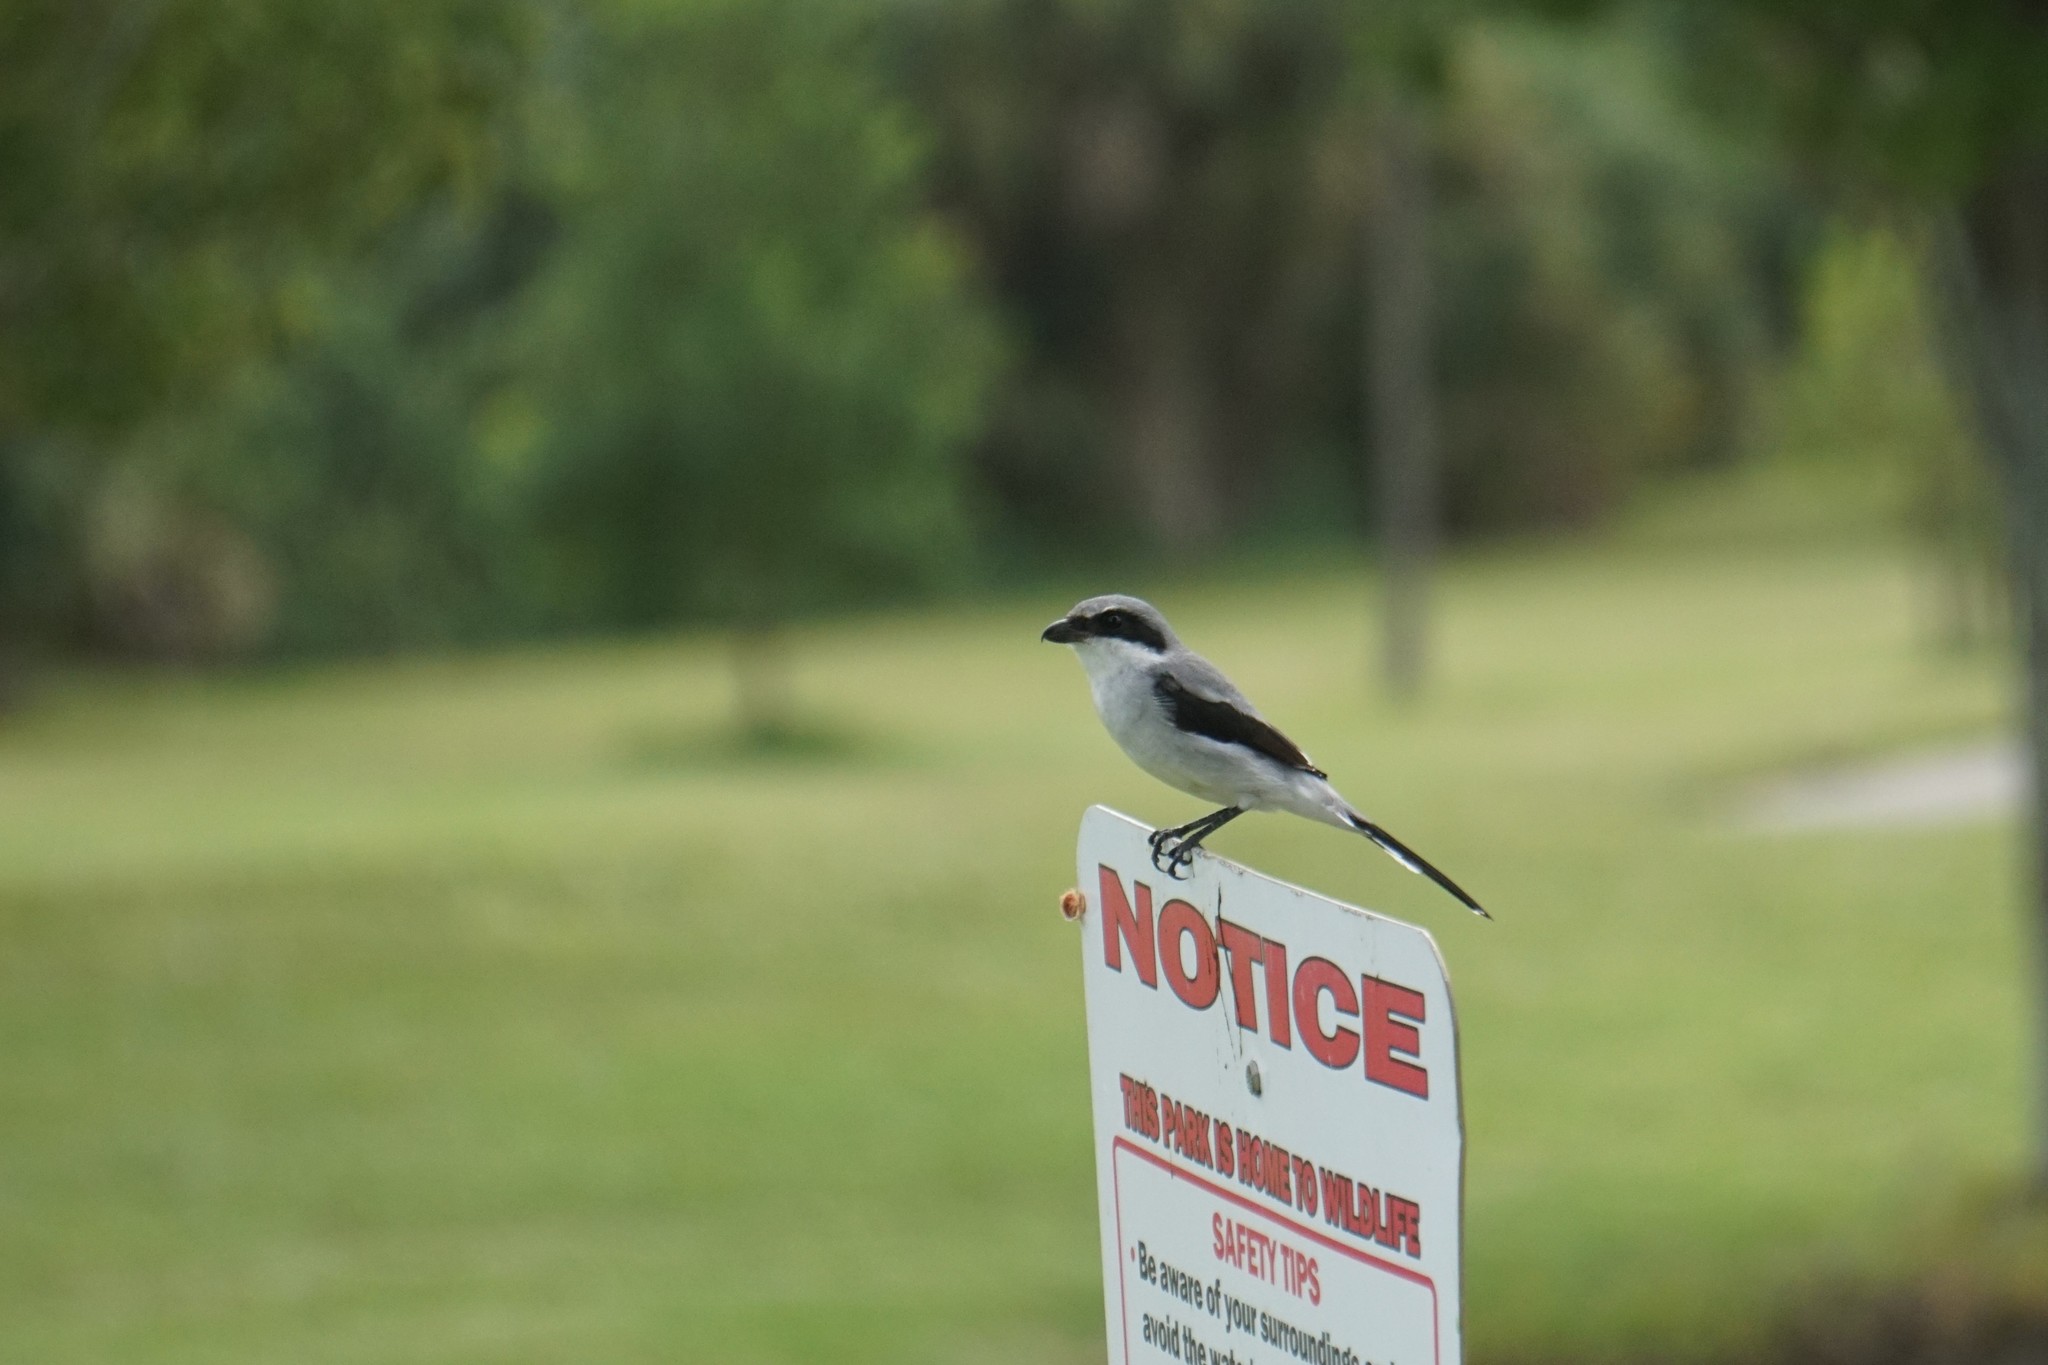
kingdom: Animalia
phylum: Chordata
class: Aves
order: Passeriformes
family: Laniidae
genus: Lanius
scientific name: Lanius ludovicianus
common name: Loggerhead shrike
